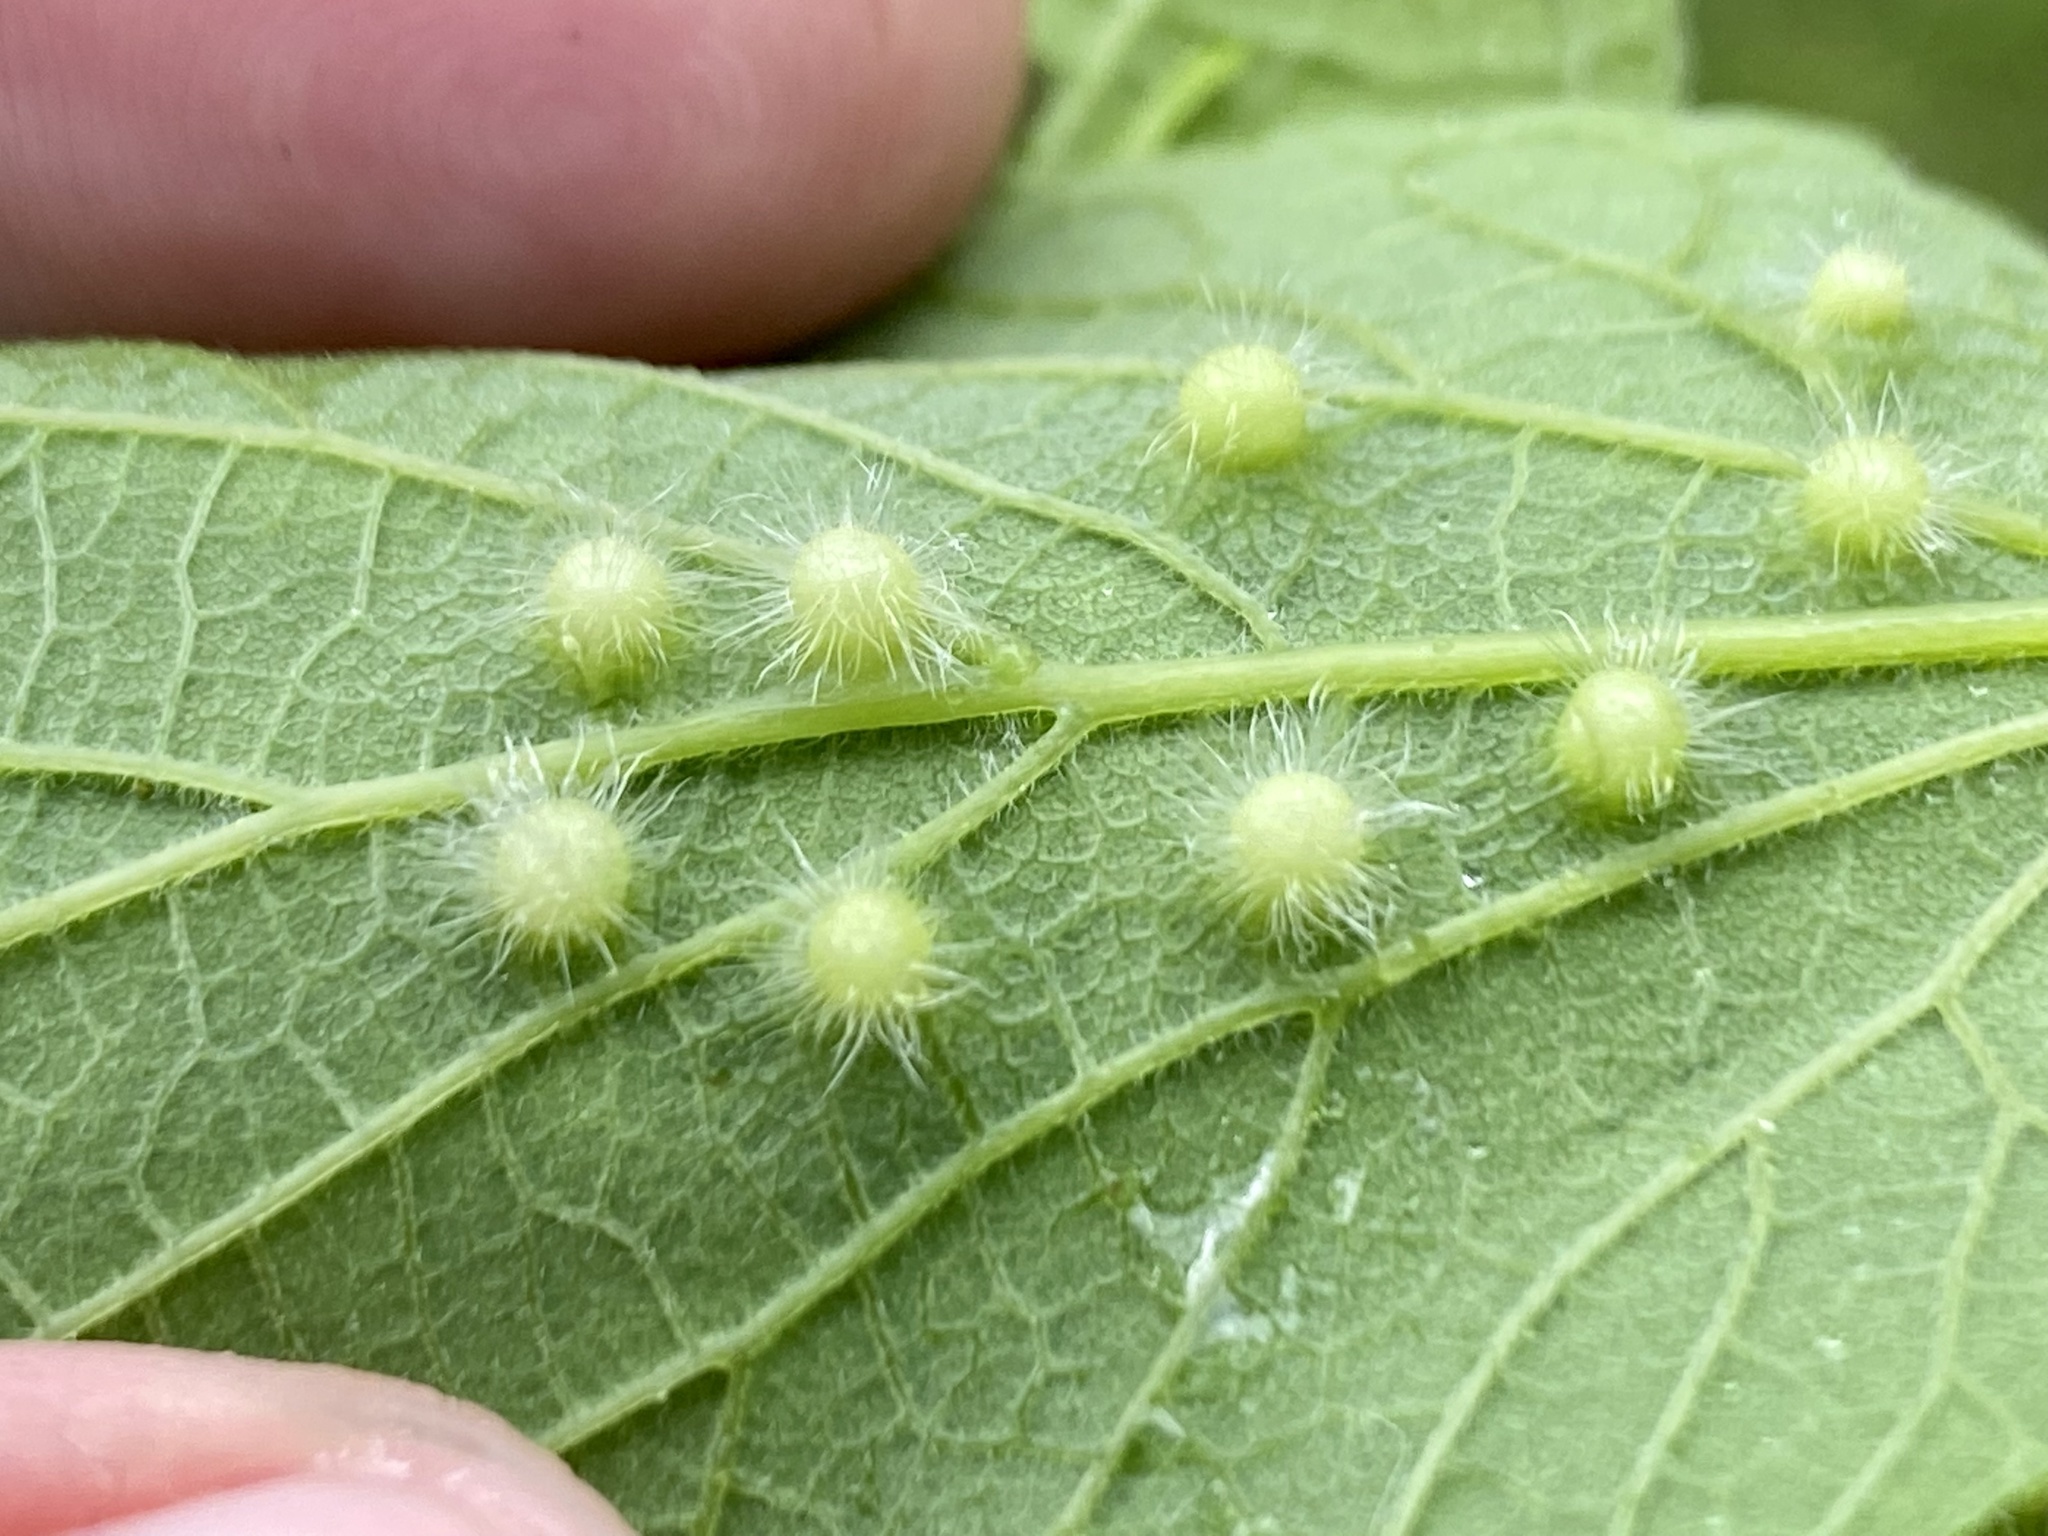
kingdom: Animalia
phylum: Arthropoda
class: Insecta
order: Hemiptera
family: Aphalaridae
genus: Pachypsylla
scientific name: Pachypsylla celtidismamma
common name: Hackberry nipplegall psyllid
